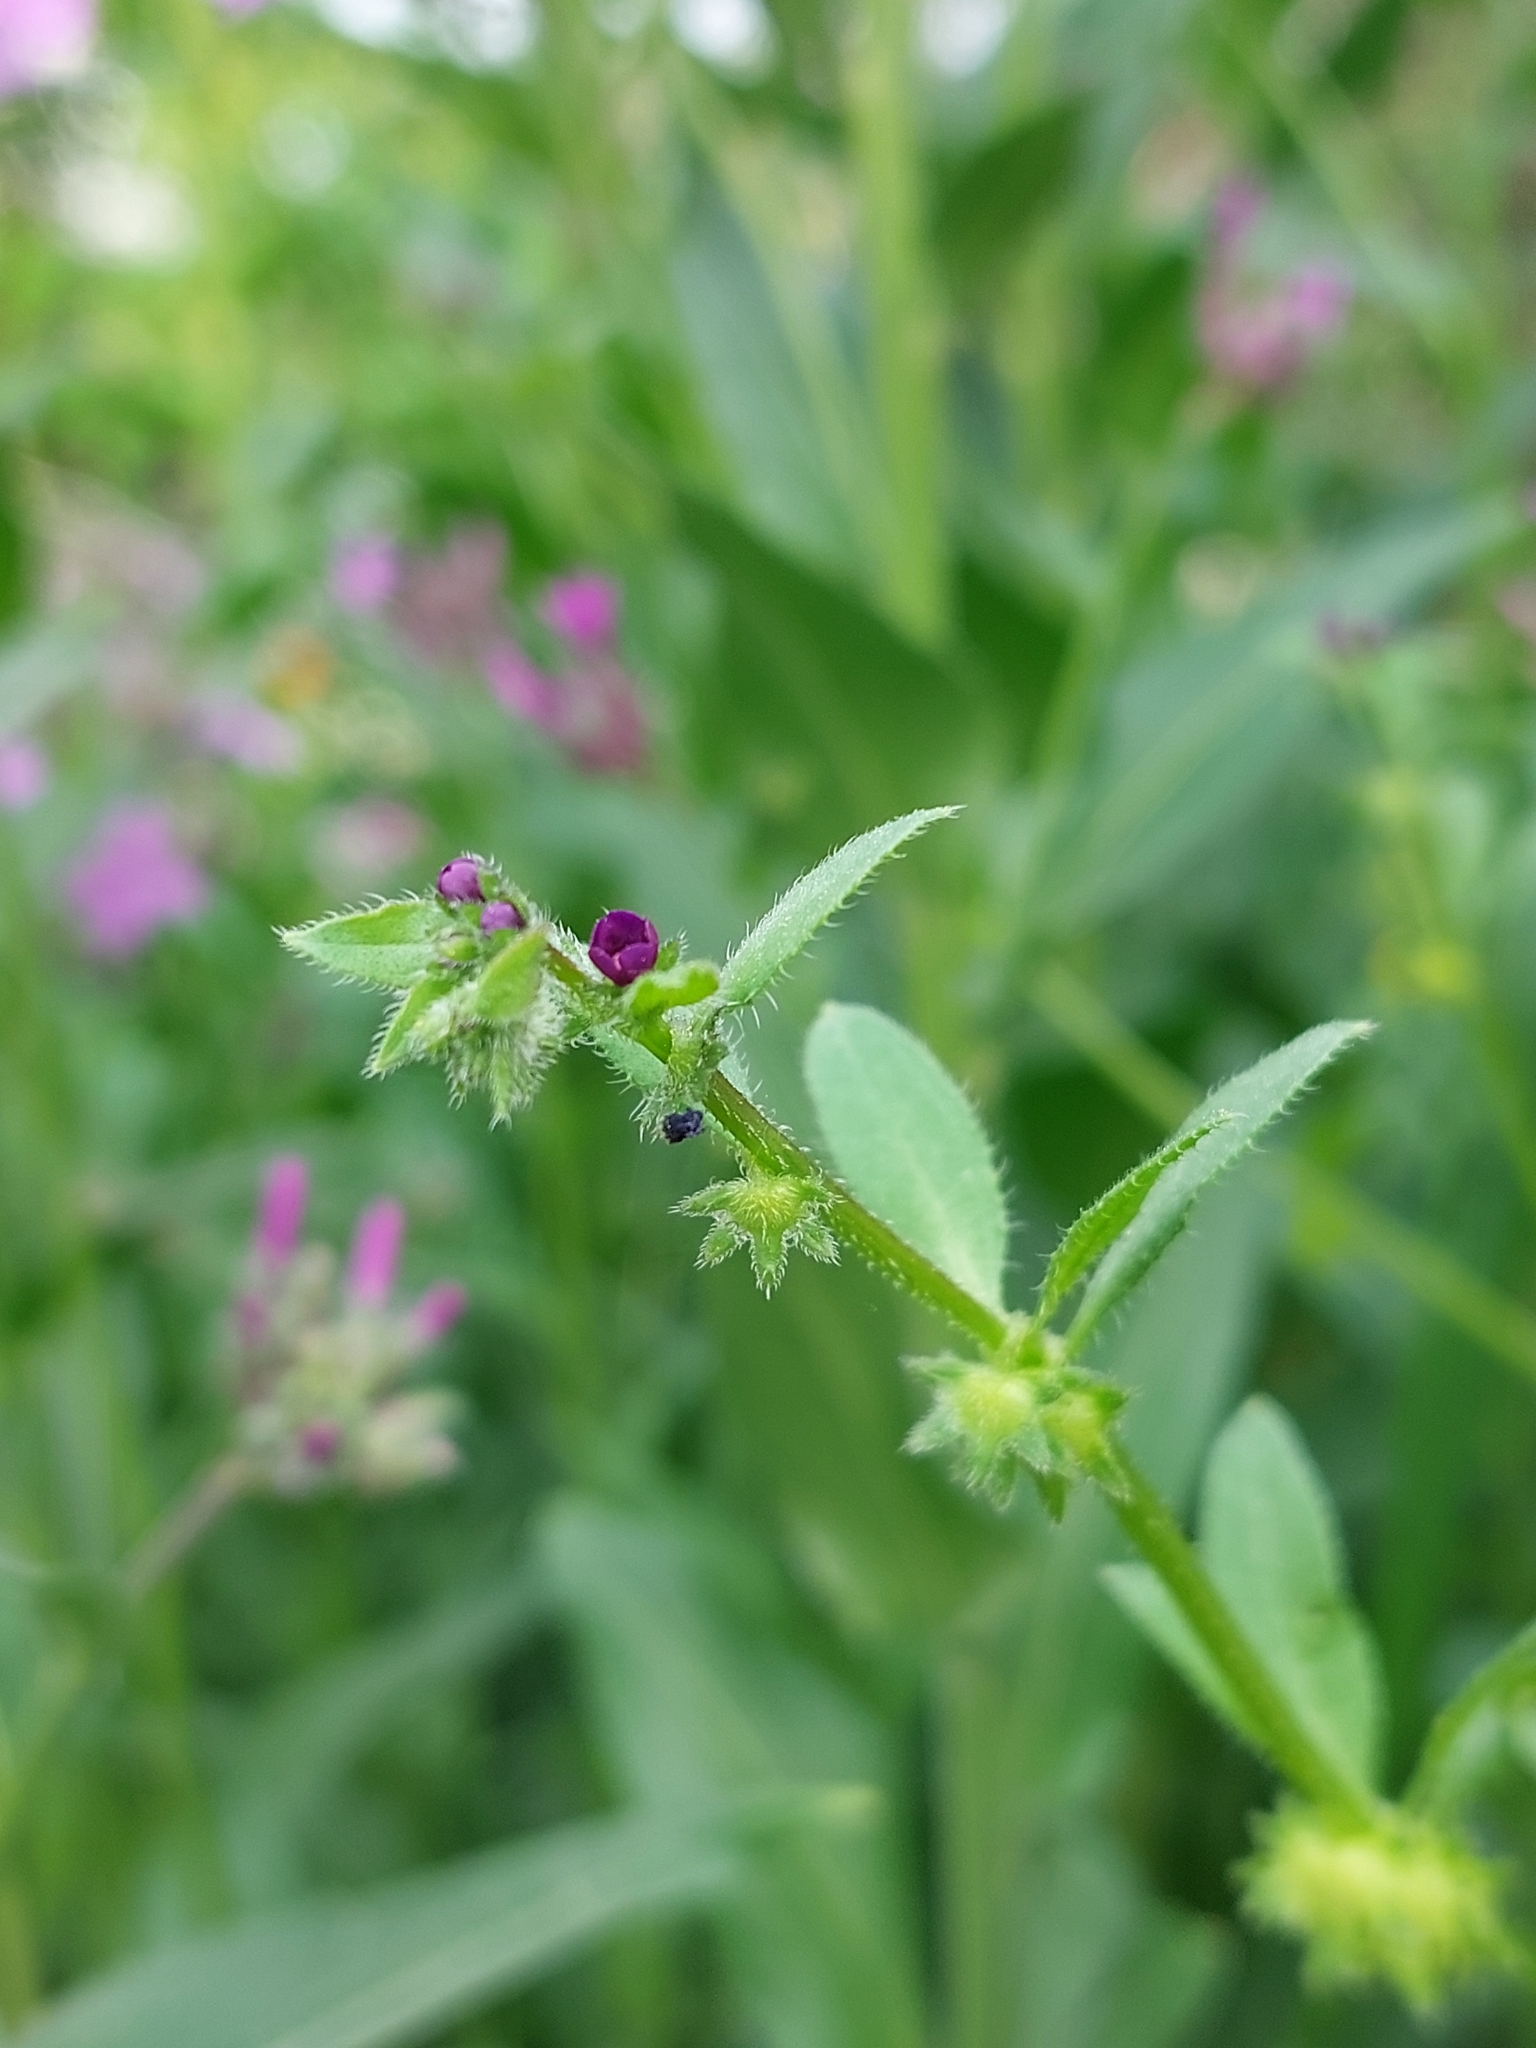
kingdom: Plantae
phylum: Tracheophyta
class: Magnoliopsida
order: Boraginales
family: Boraginaceae
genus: Asperugo
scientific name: Asperugo procumbens
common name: Madwort
